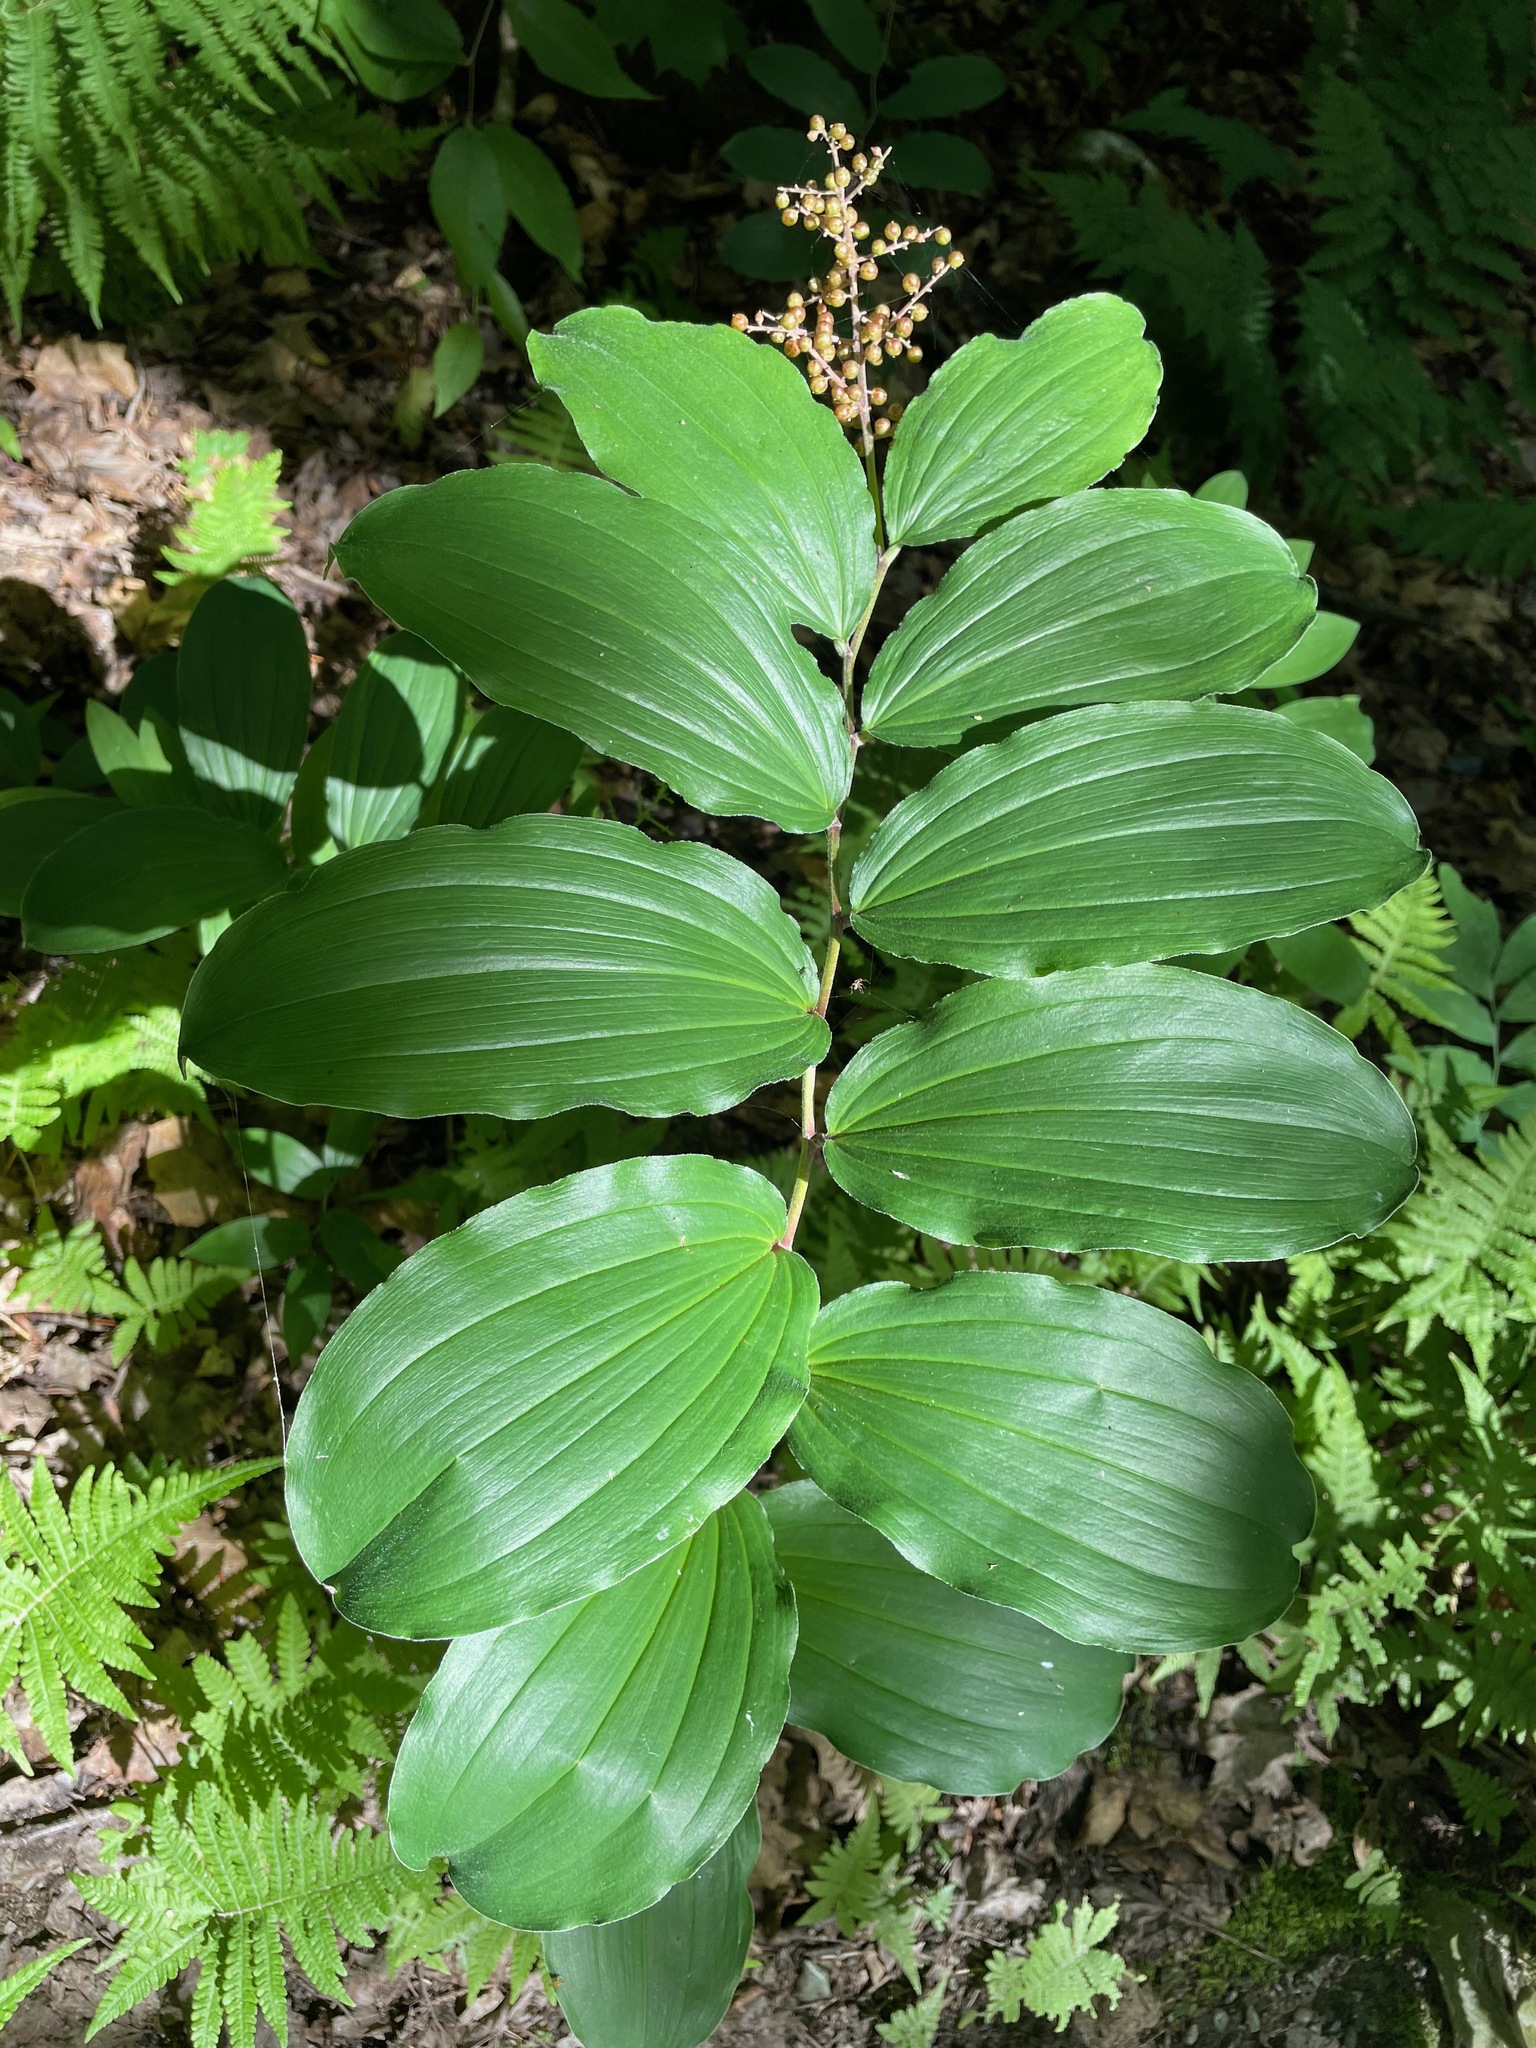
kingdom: Plantae
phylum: Tracheophyta
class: Liliopsida
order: Asparagales
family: Asparagaceae
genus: Maianthemum
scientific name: Maianthemum racemosum
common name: False spikenard
